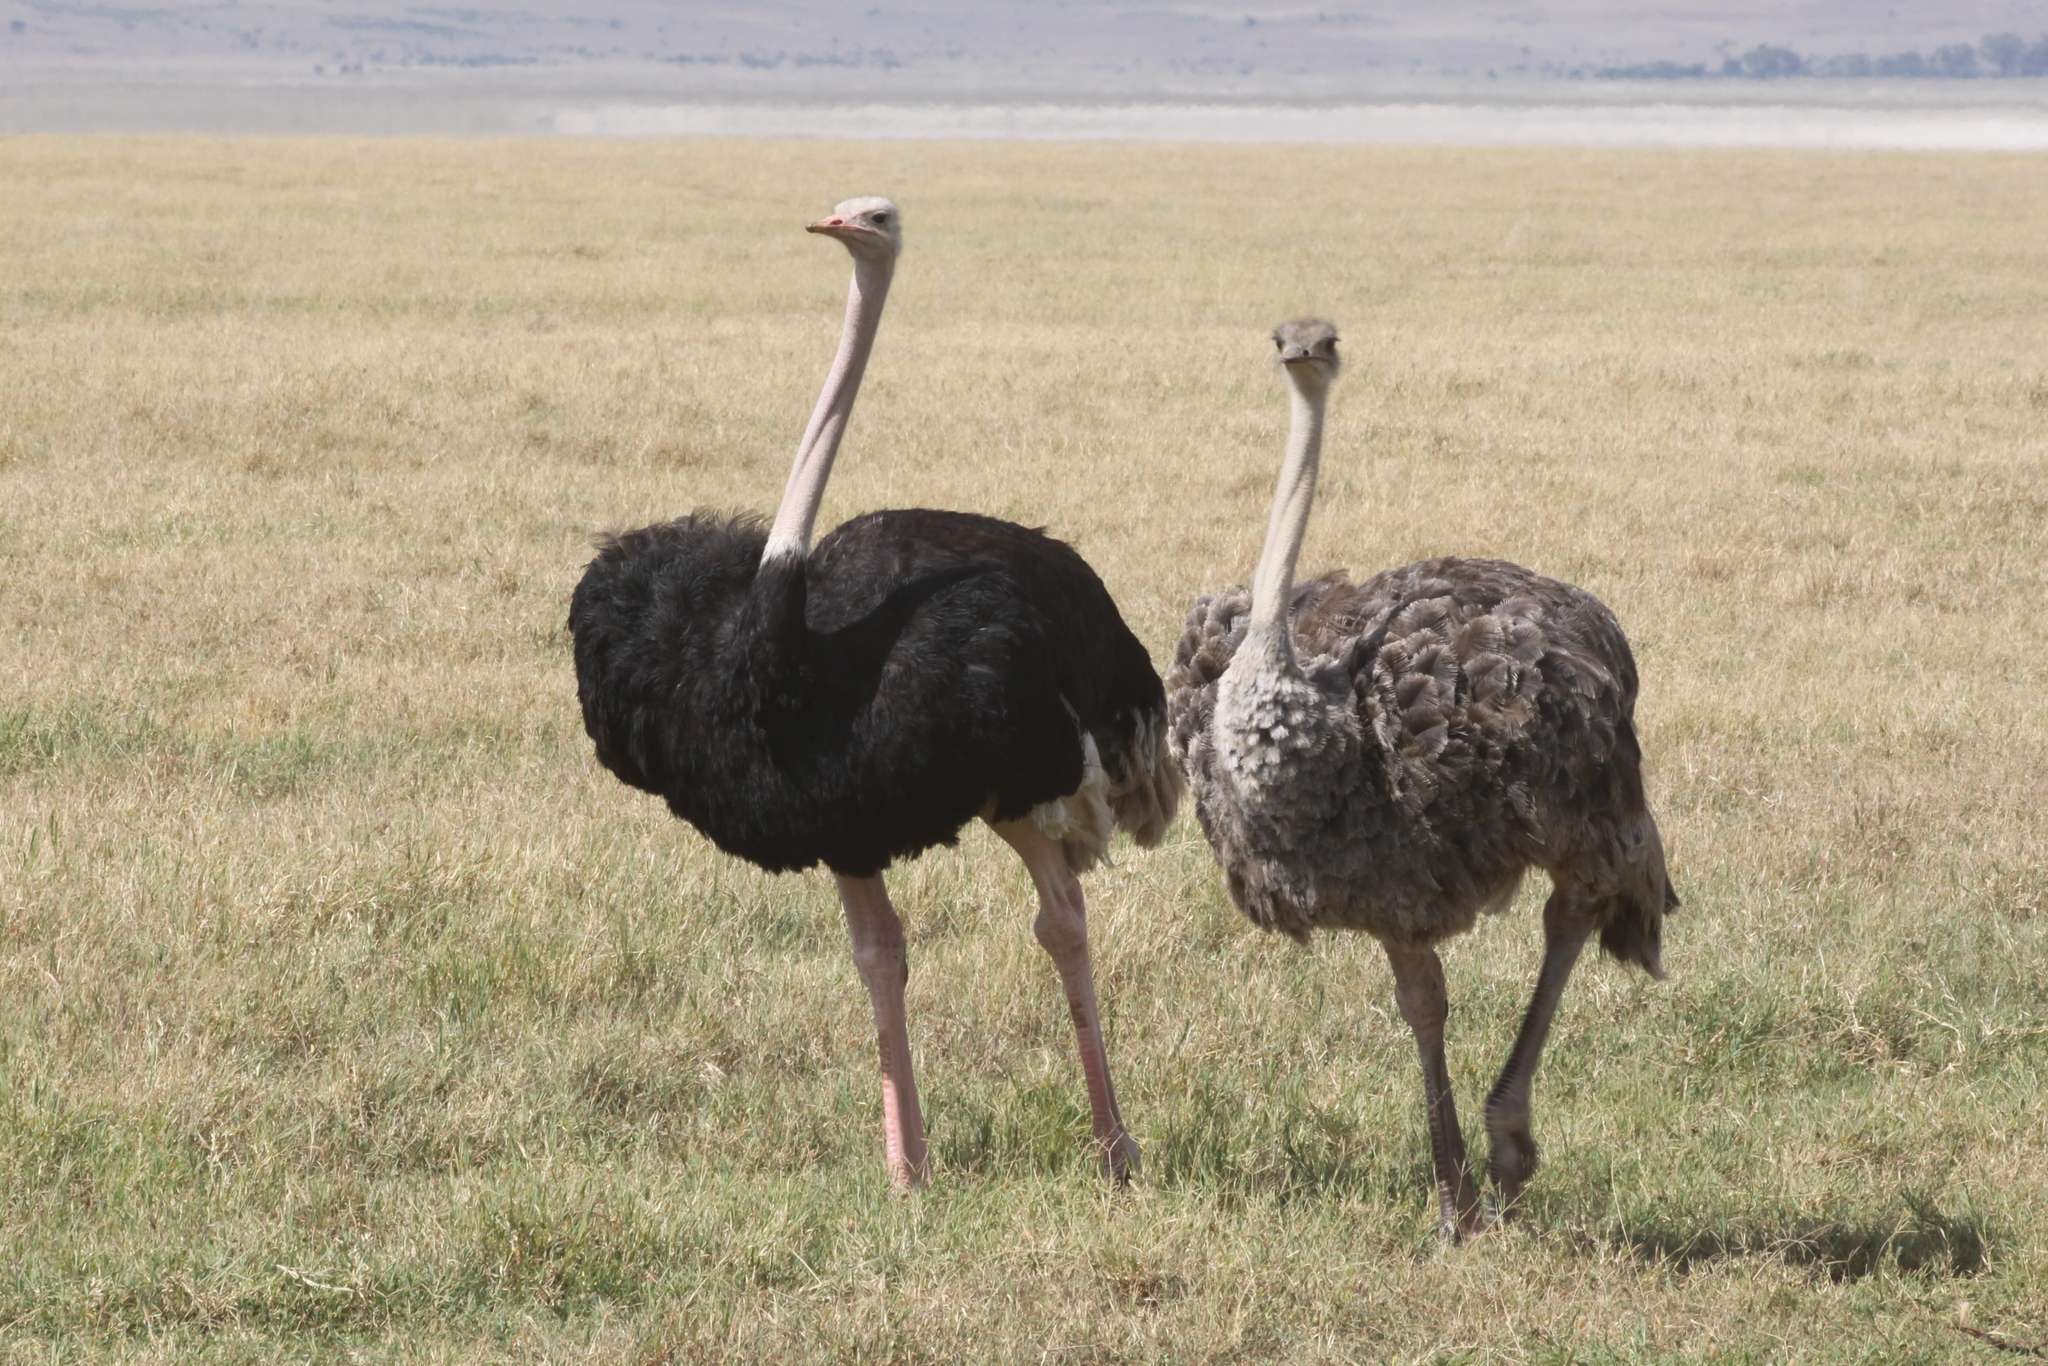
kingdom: Animalia
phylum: Chordata
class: Aves
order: Struthioniformes
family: Struthionidae
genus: Struthio
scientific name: Struthio camelus
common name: Common ostrich
